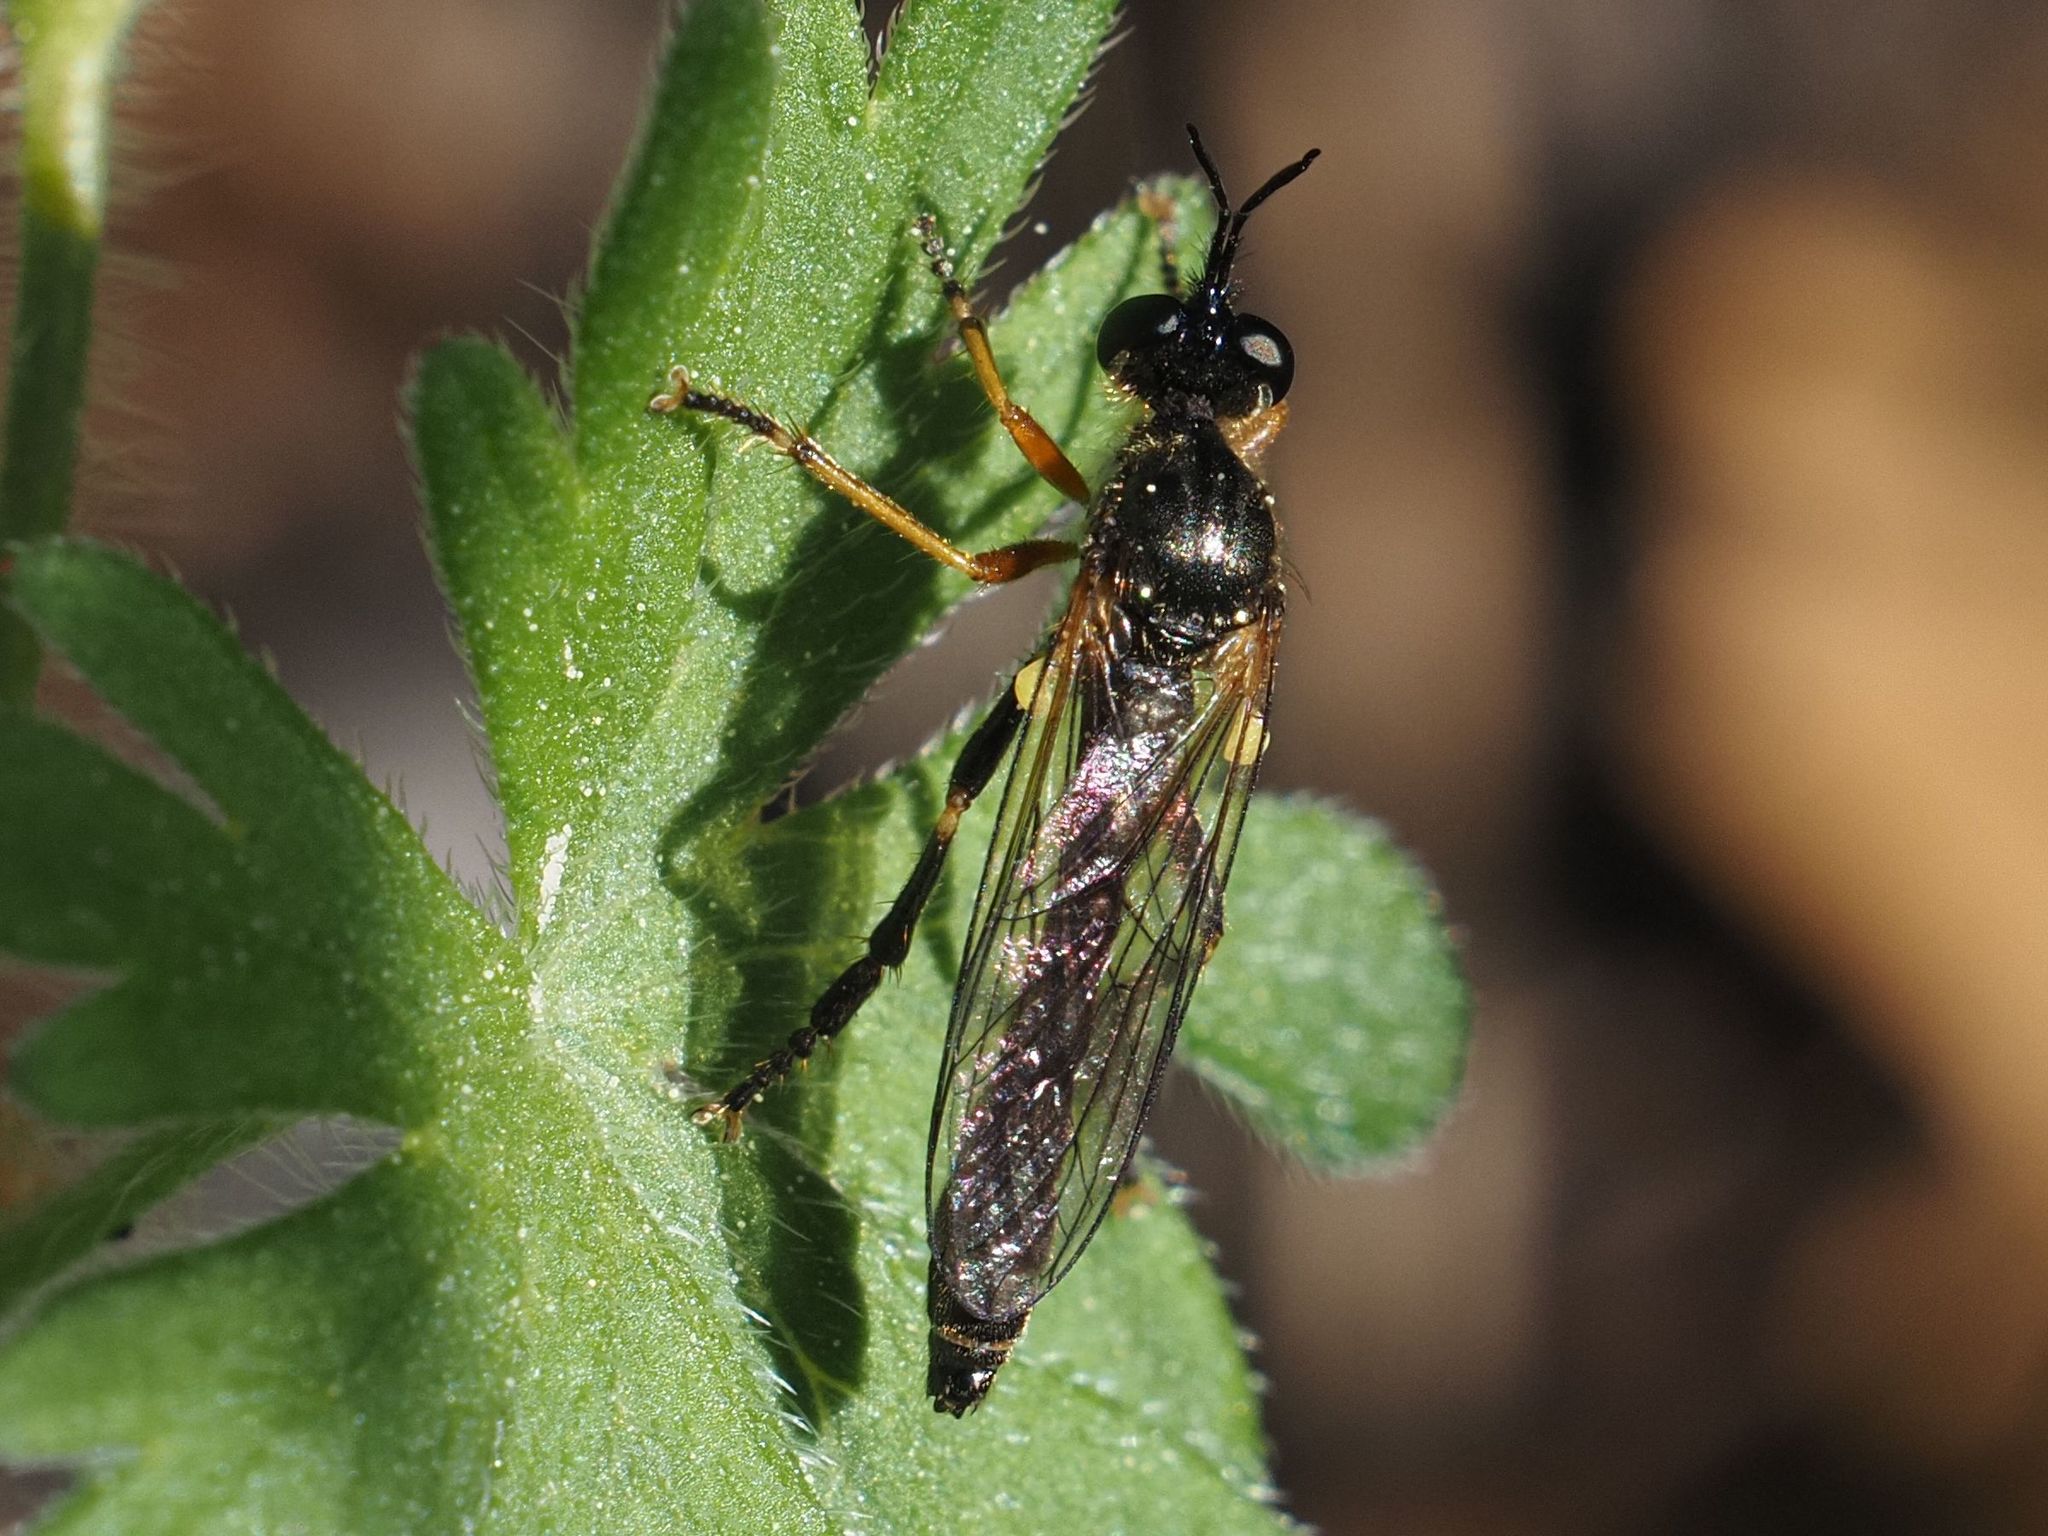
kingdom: Animalia
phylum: Arthropoda
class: Insecta
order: Diptera
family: Asilidae
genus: Dioctria
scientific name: Dioctria rufipes
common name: Common red-legged robberfly
